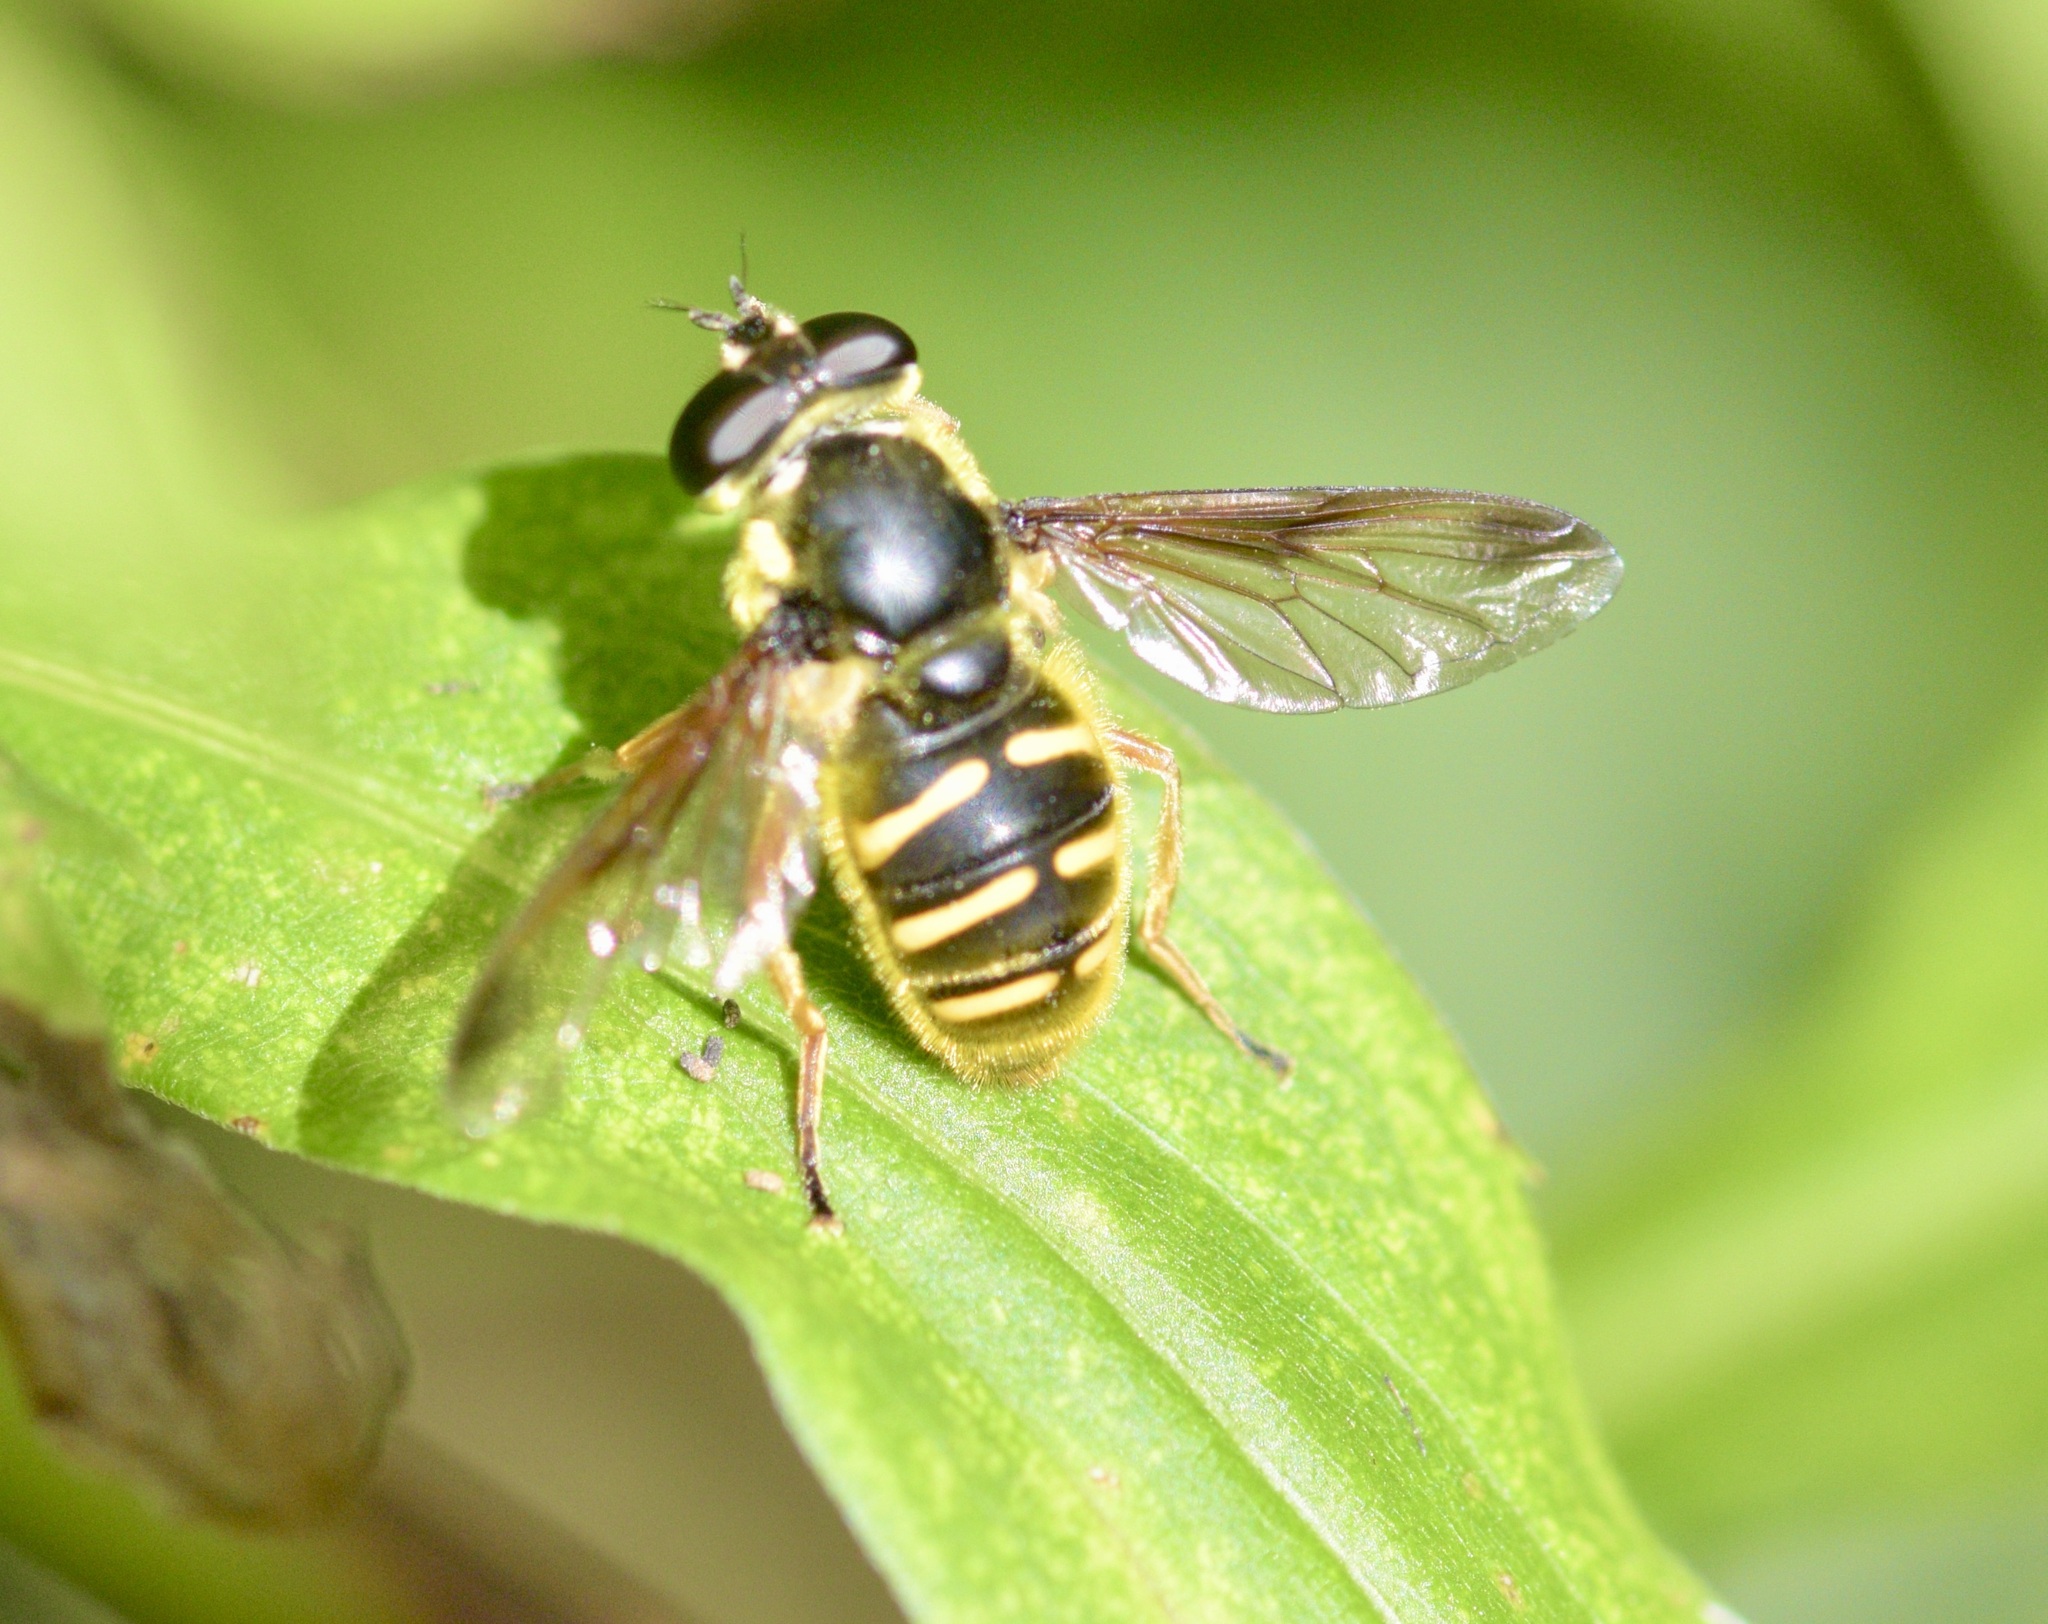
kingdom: Animalia
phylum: Arthropoda
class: Insecta
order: Diptera
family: Syrphidae
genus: Sericomyia
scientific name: Sericomyia chrysotoxoides
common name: Oblique-banded pond fly
